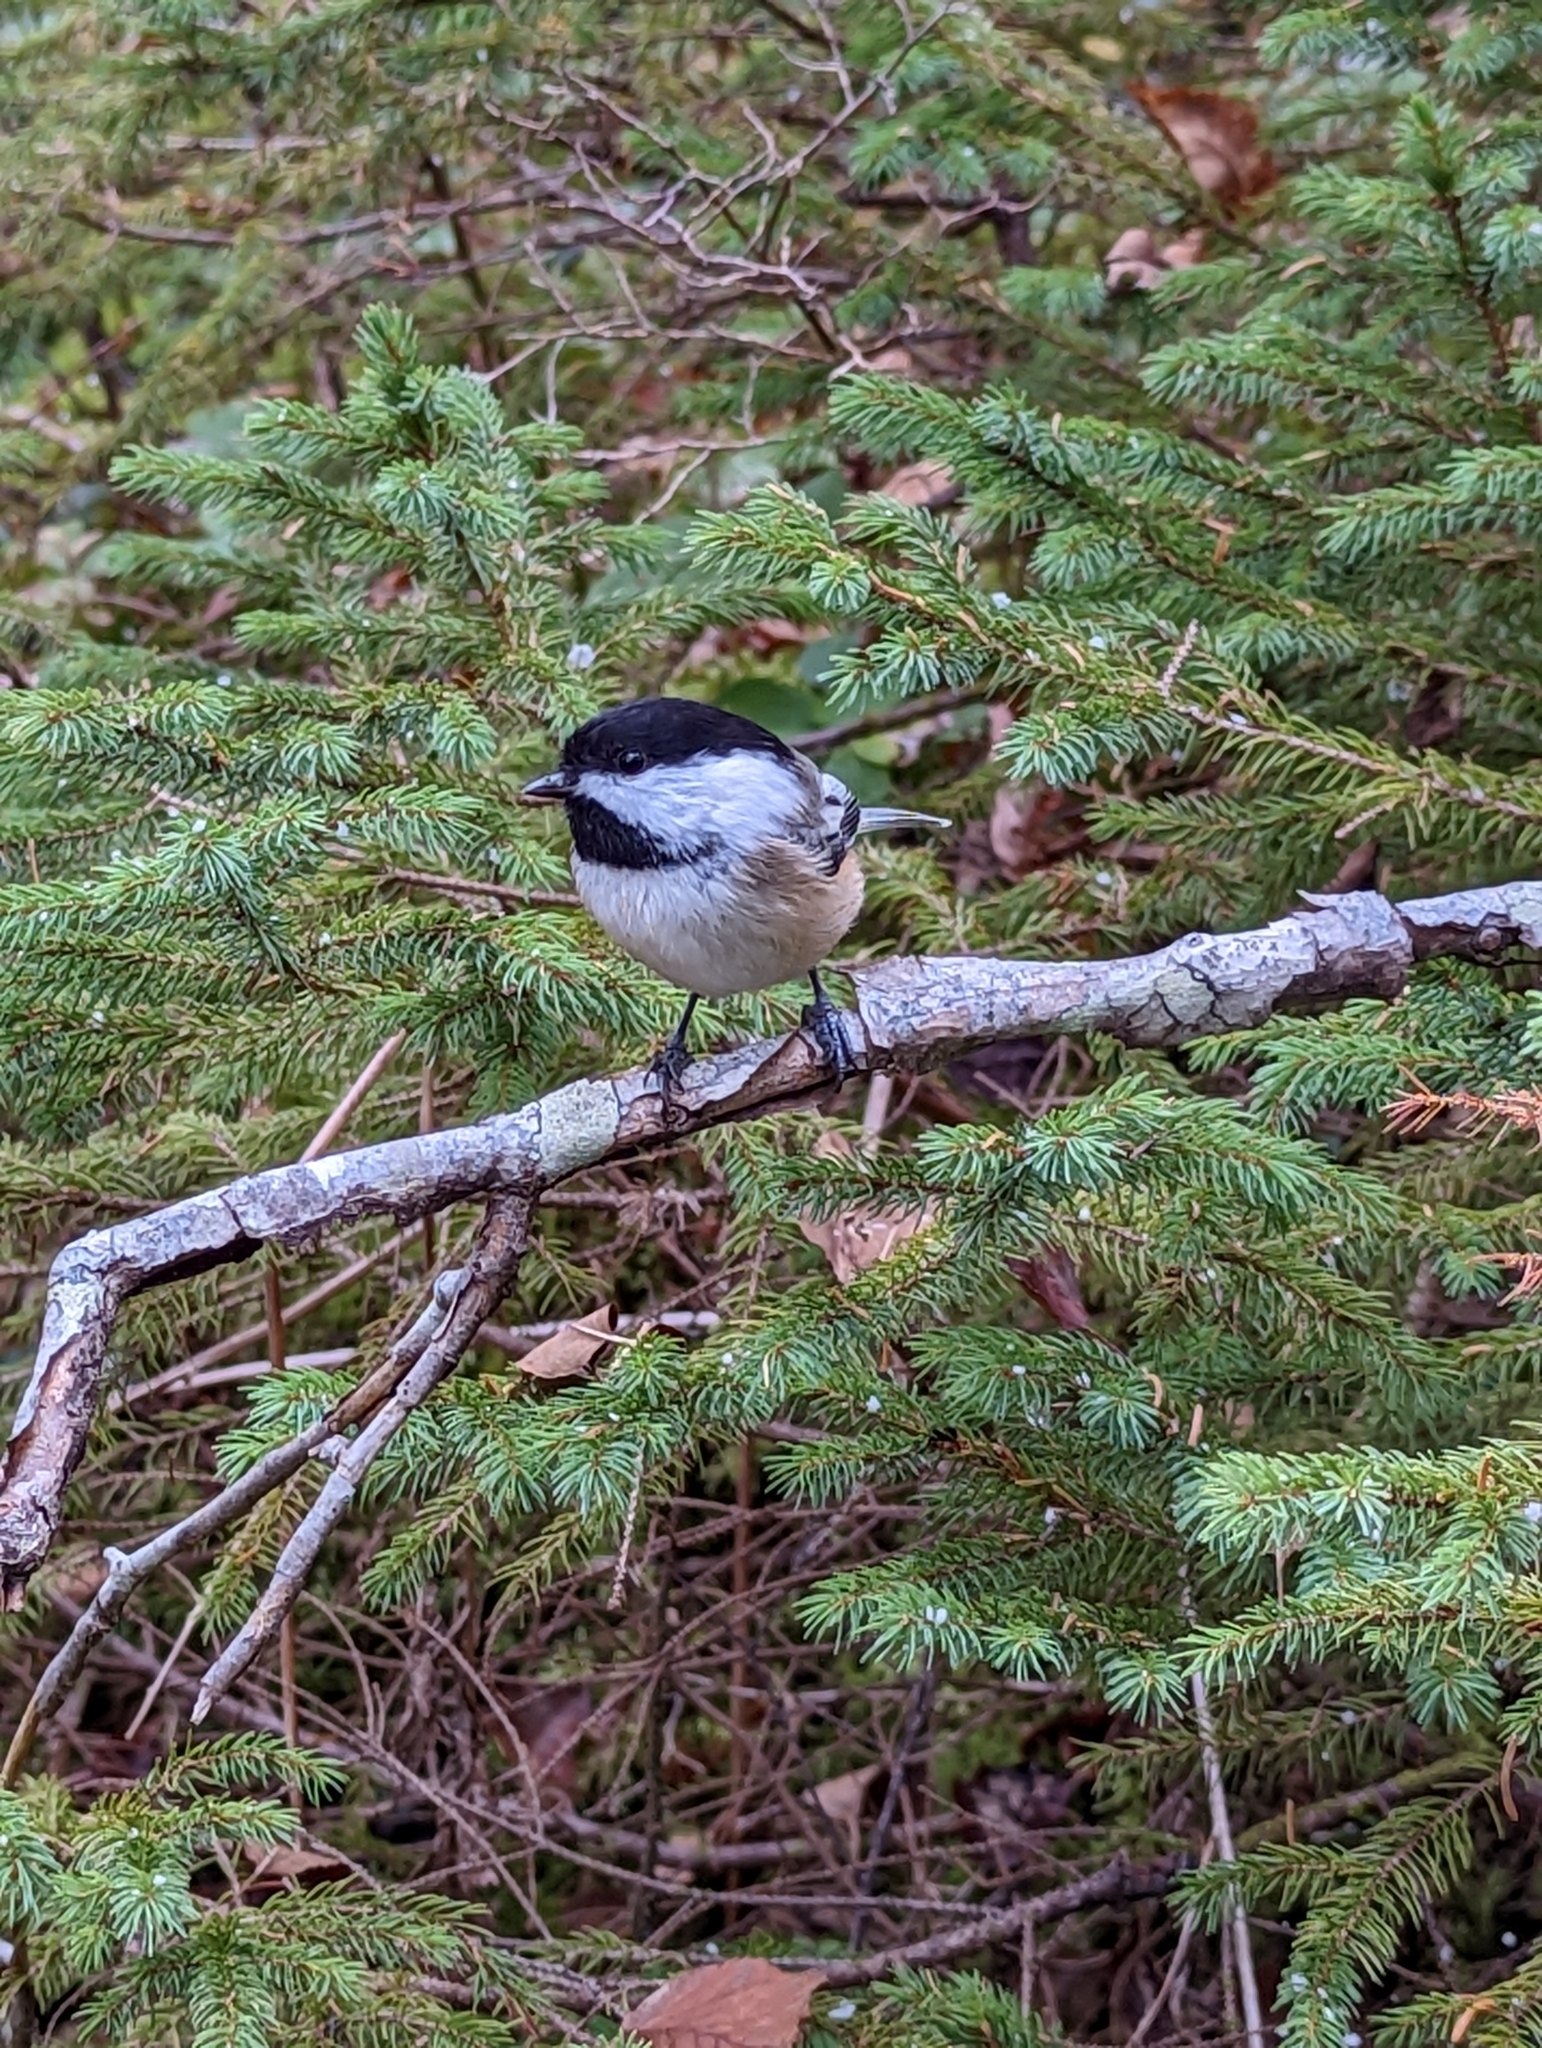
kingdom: Animalia
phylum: Chordata
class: Aves
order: Passeriformes
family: Paridae
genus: Poecile
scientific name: Poecile atricapillus
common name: Black-capped chickadee
